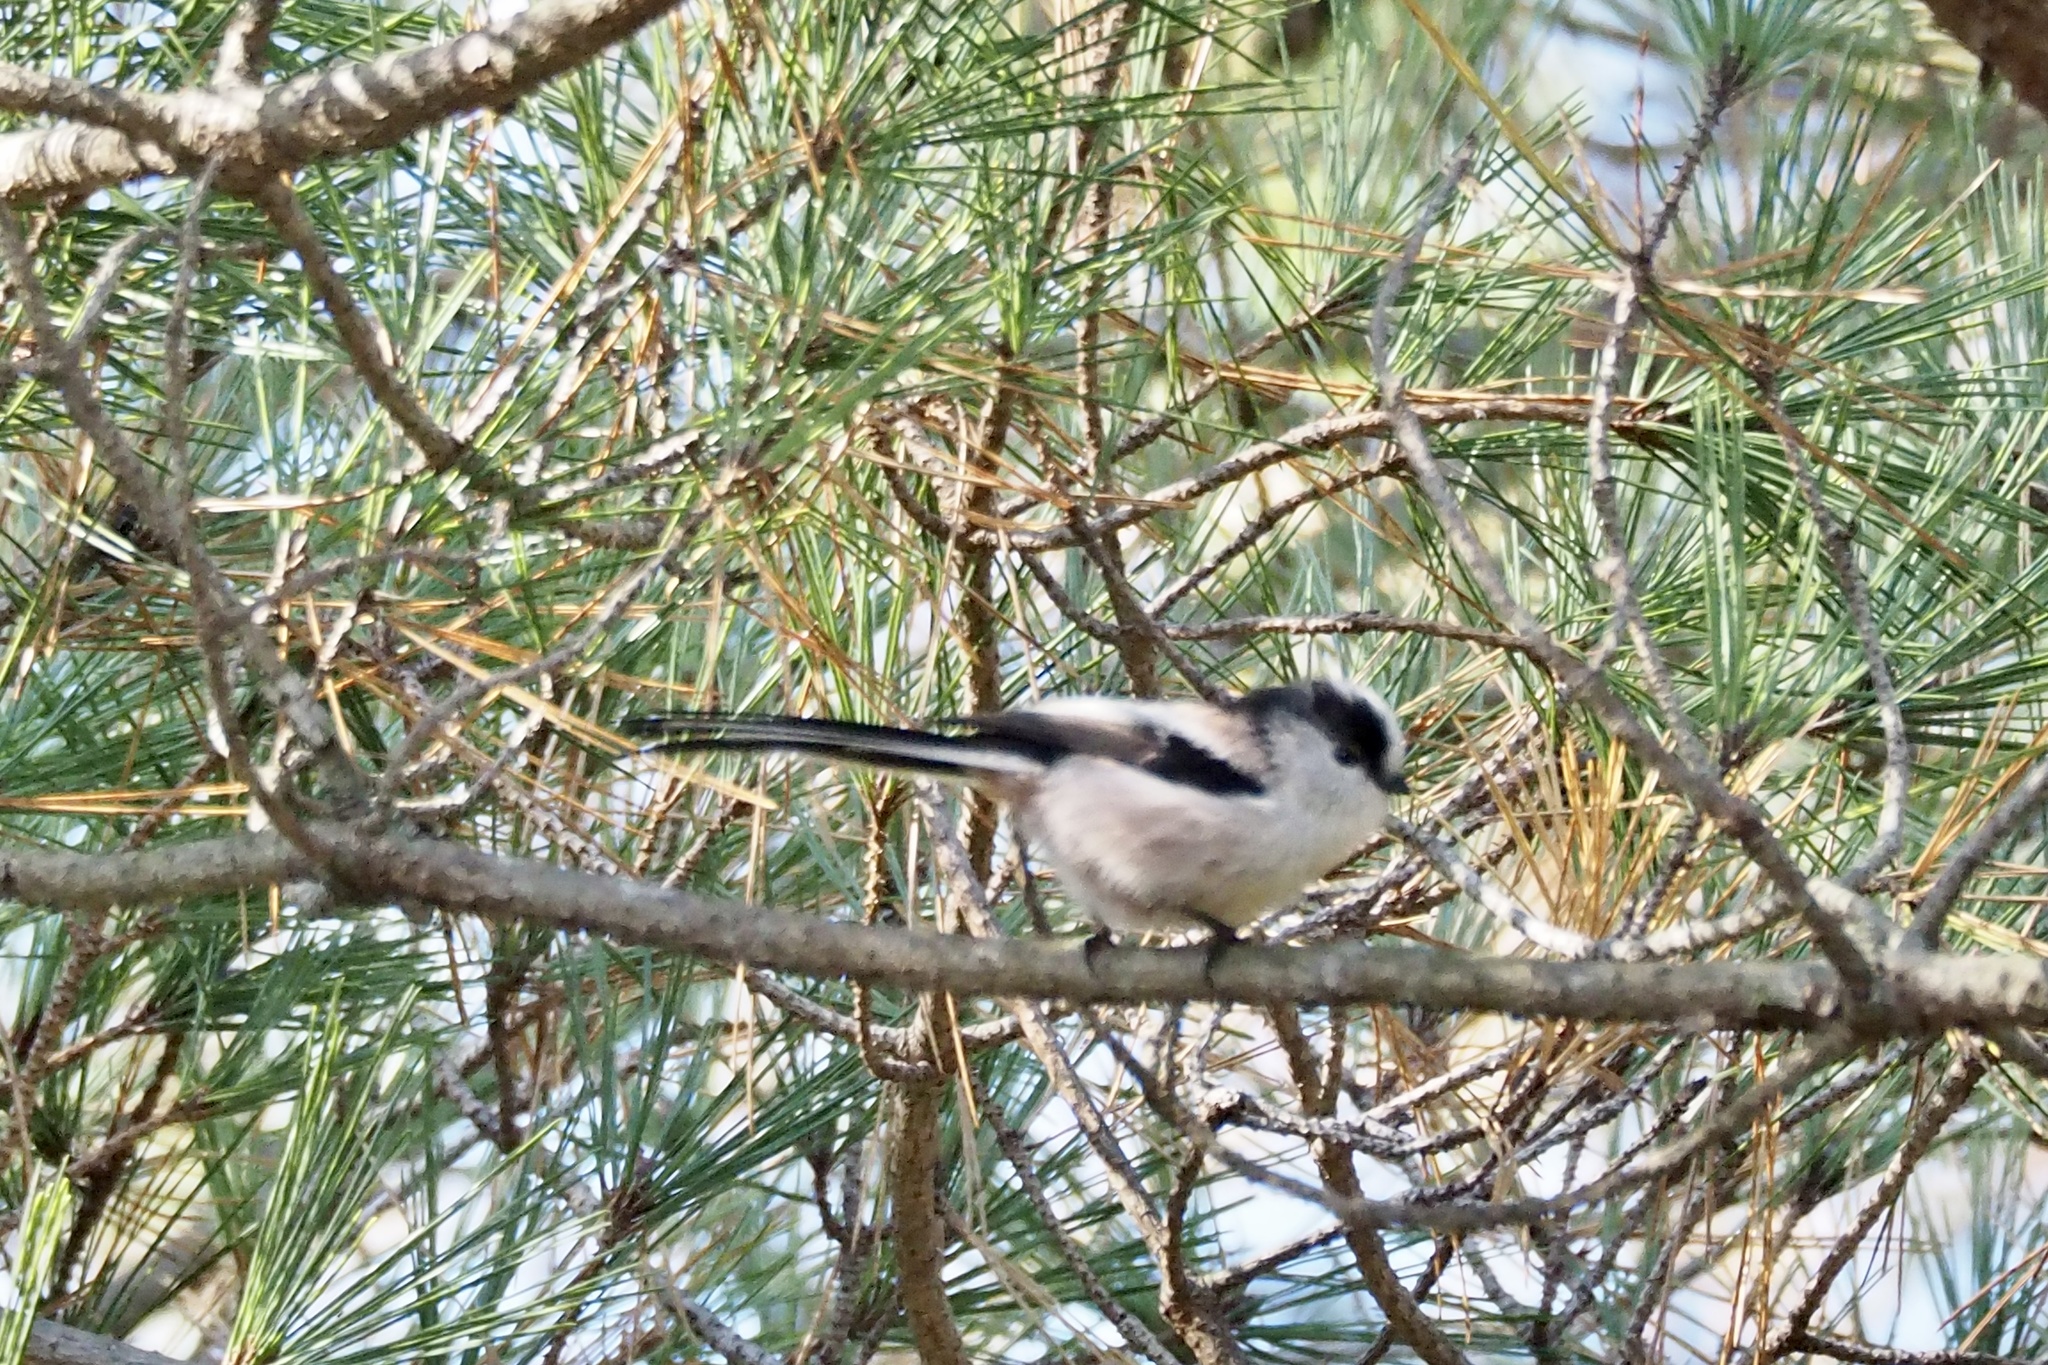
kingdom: Animalia
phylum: Chordata
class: Aves
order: Passeriformes
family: Aegithalidae
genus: Aegithalos
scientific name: Aegithalos caudatus
